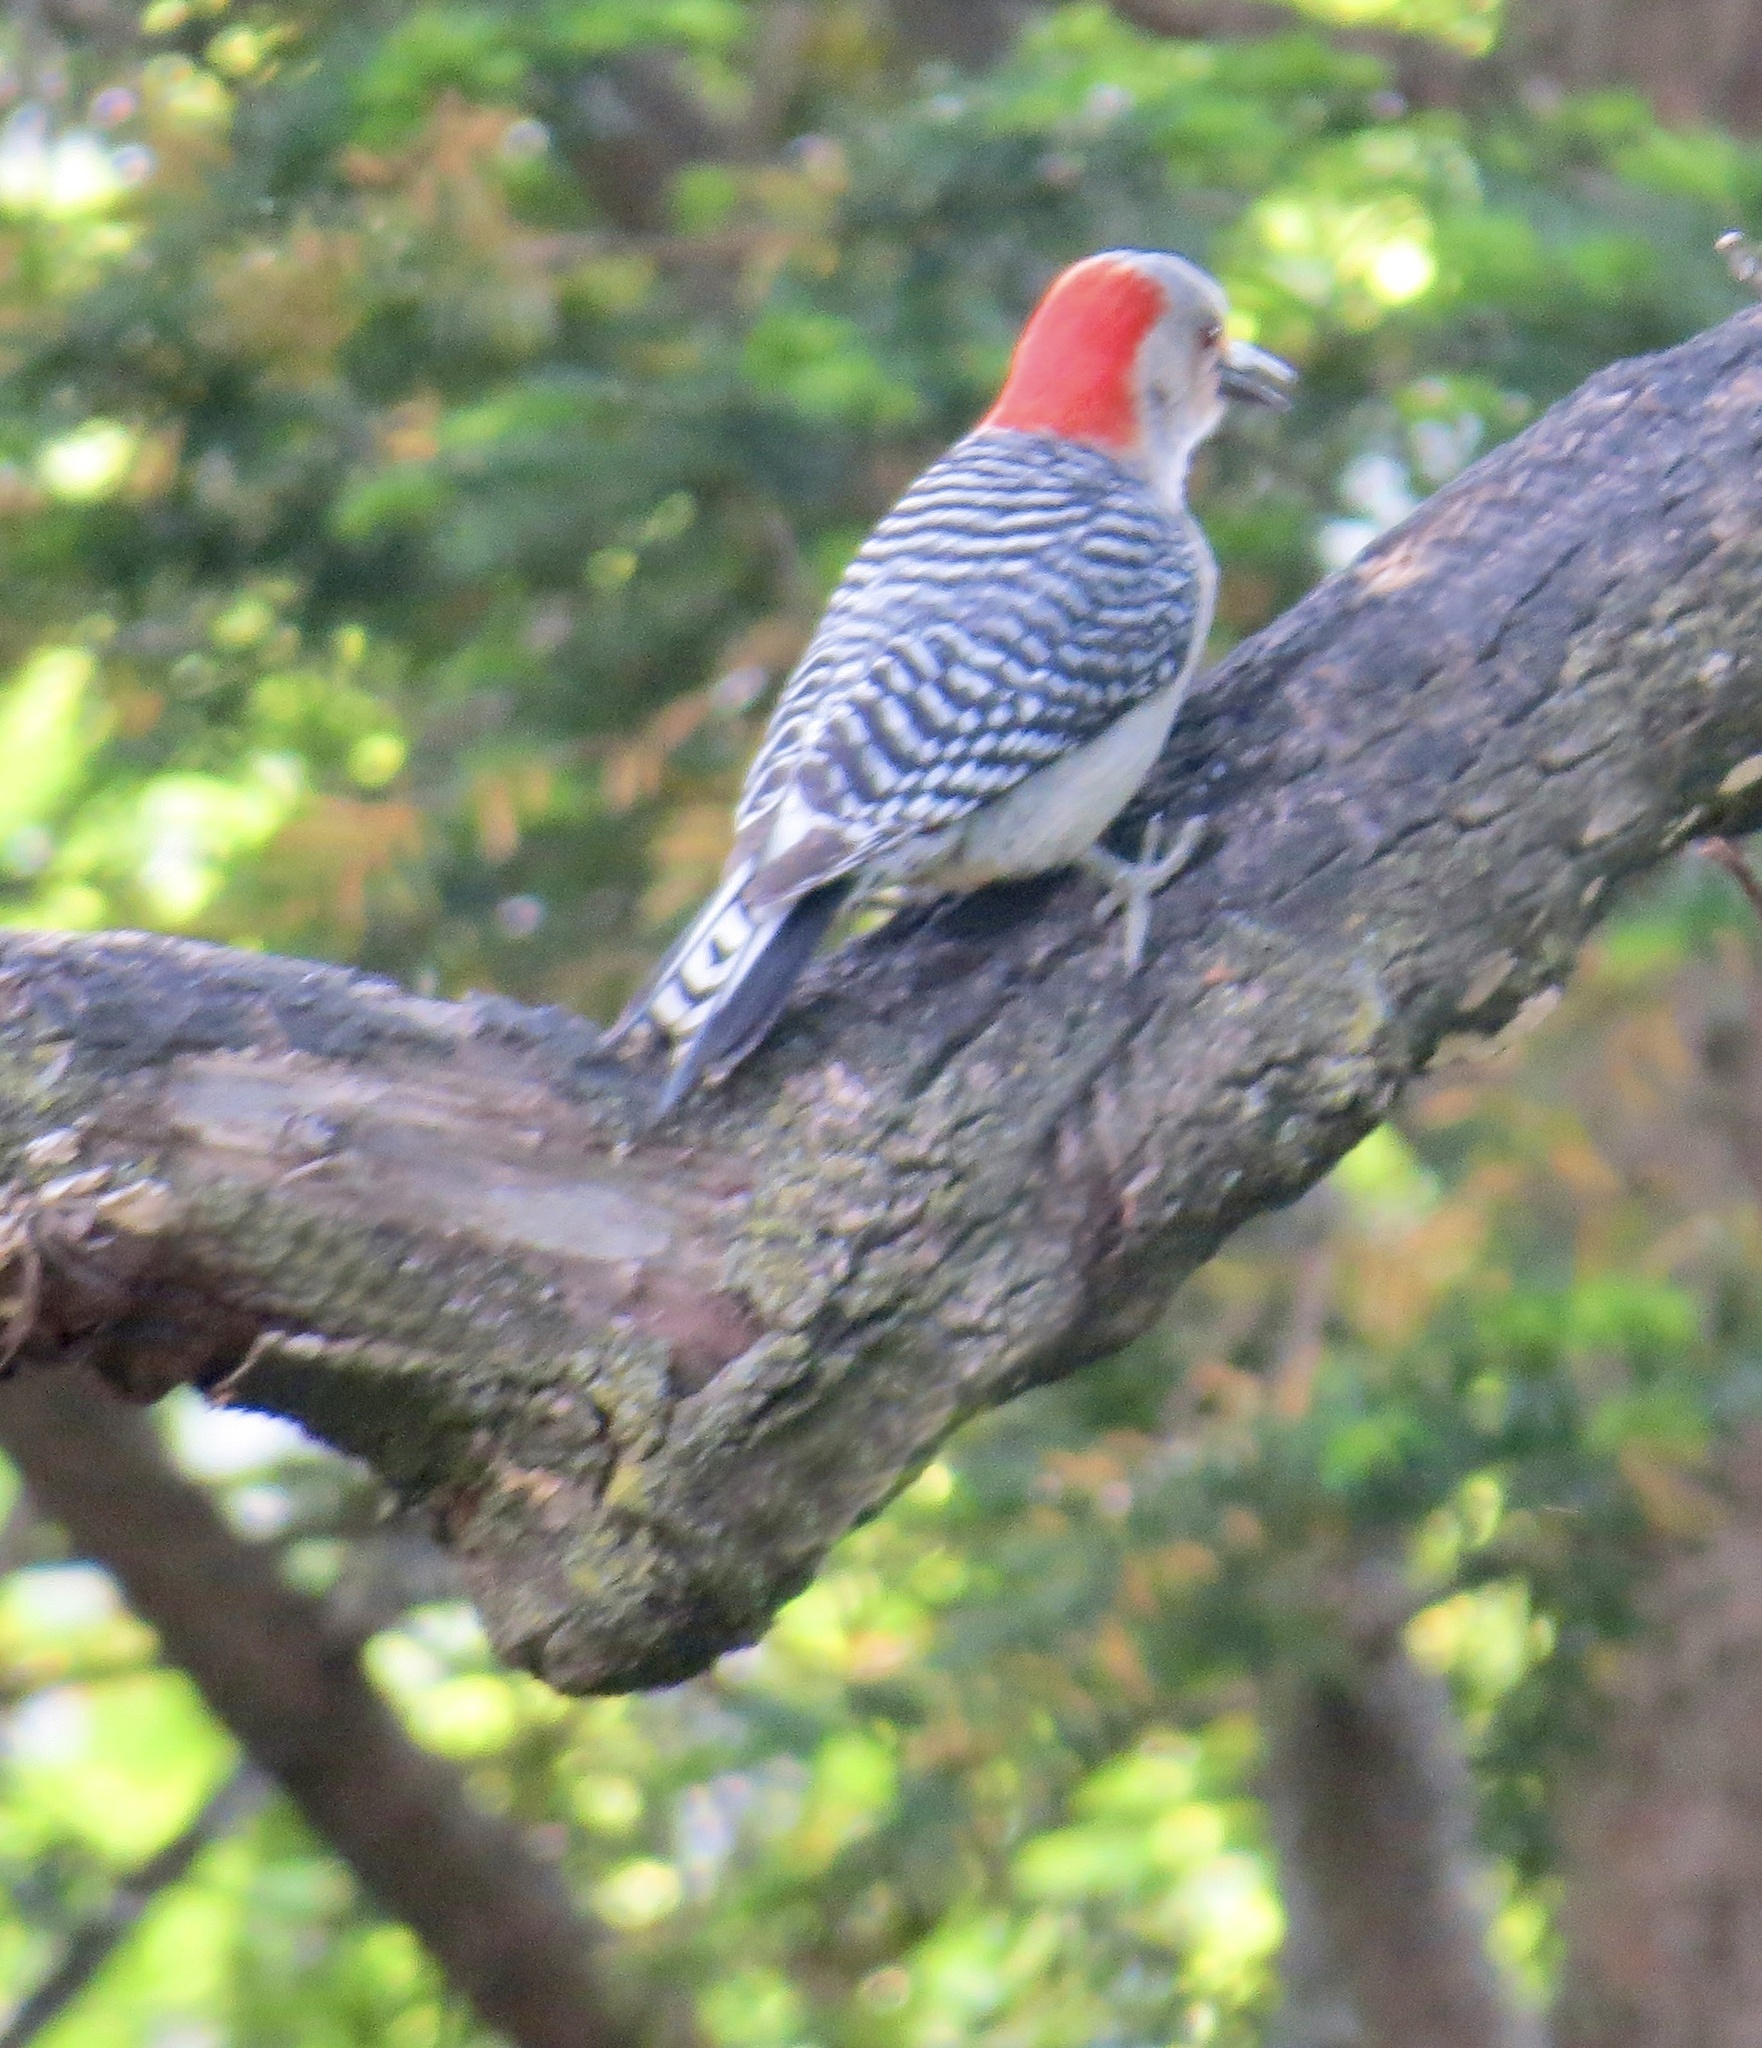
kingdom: Animalia
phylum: Chordata
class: Aves
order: Piciformes
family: Picidae
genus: Melanerpes
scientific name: Melanerpes carolinus
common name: Red-bellied woodpecker
